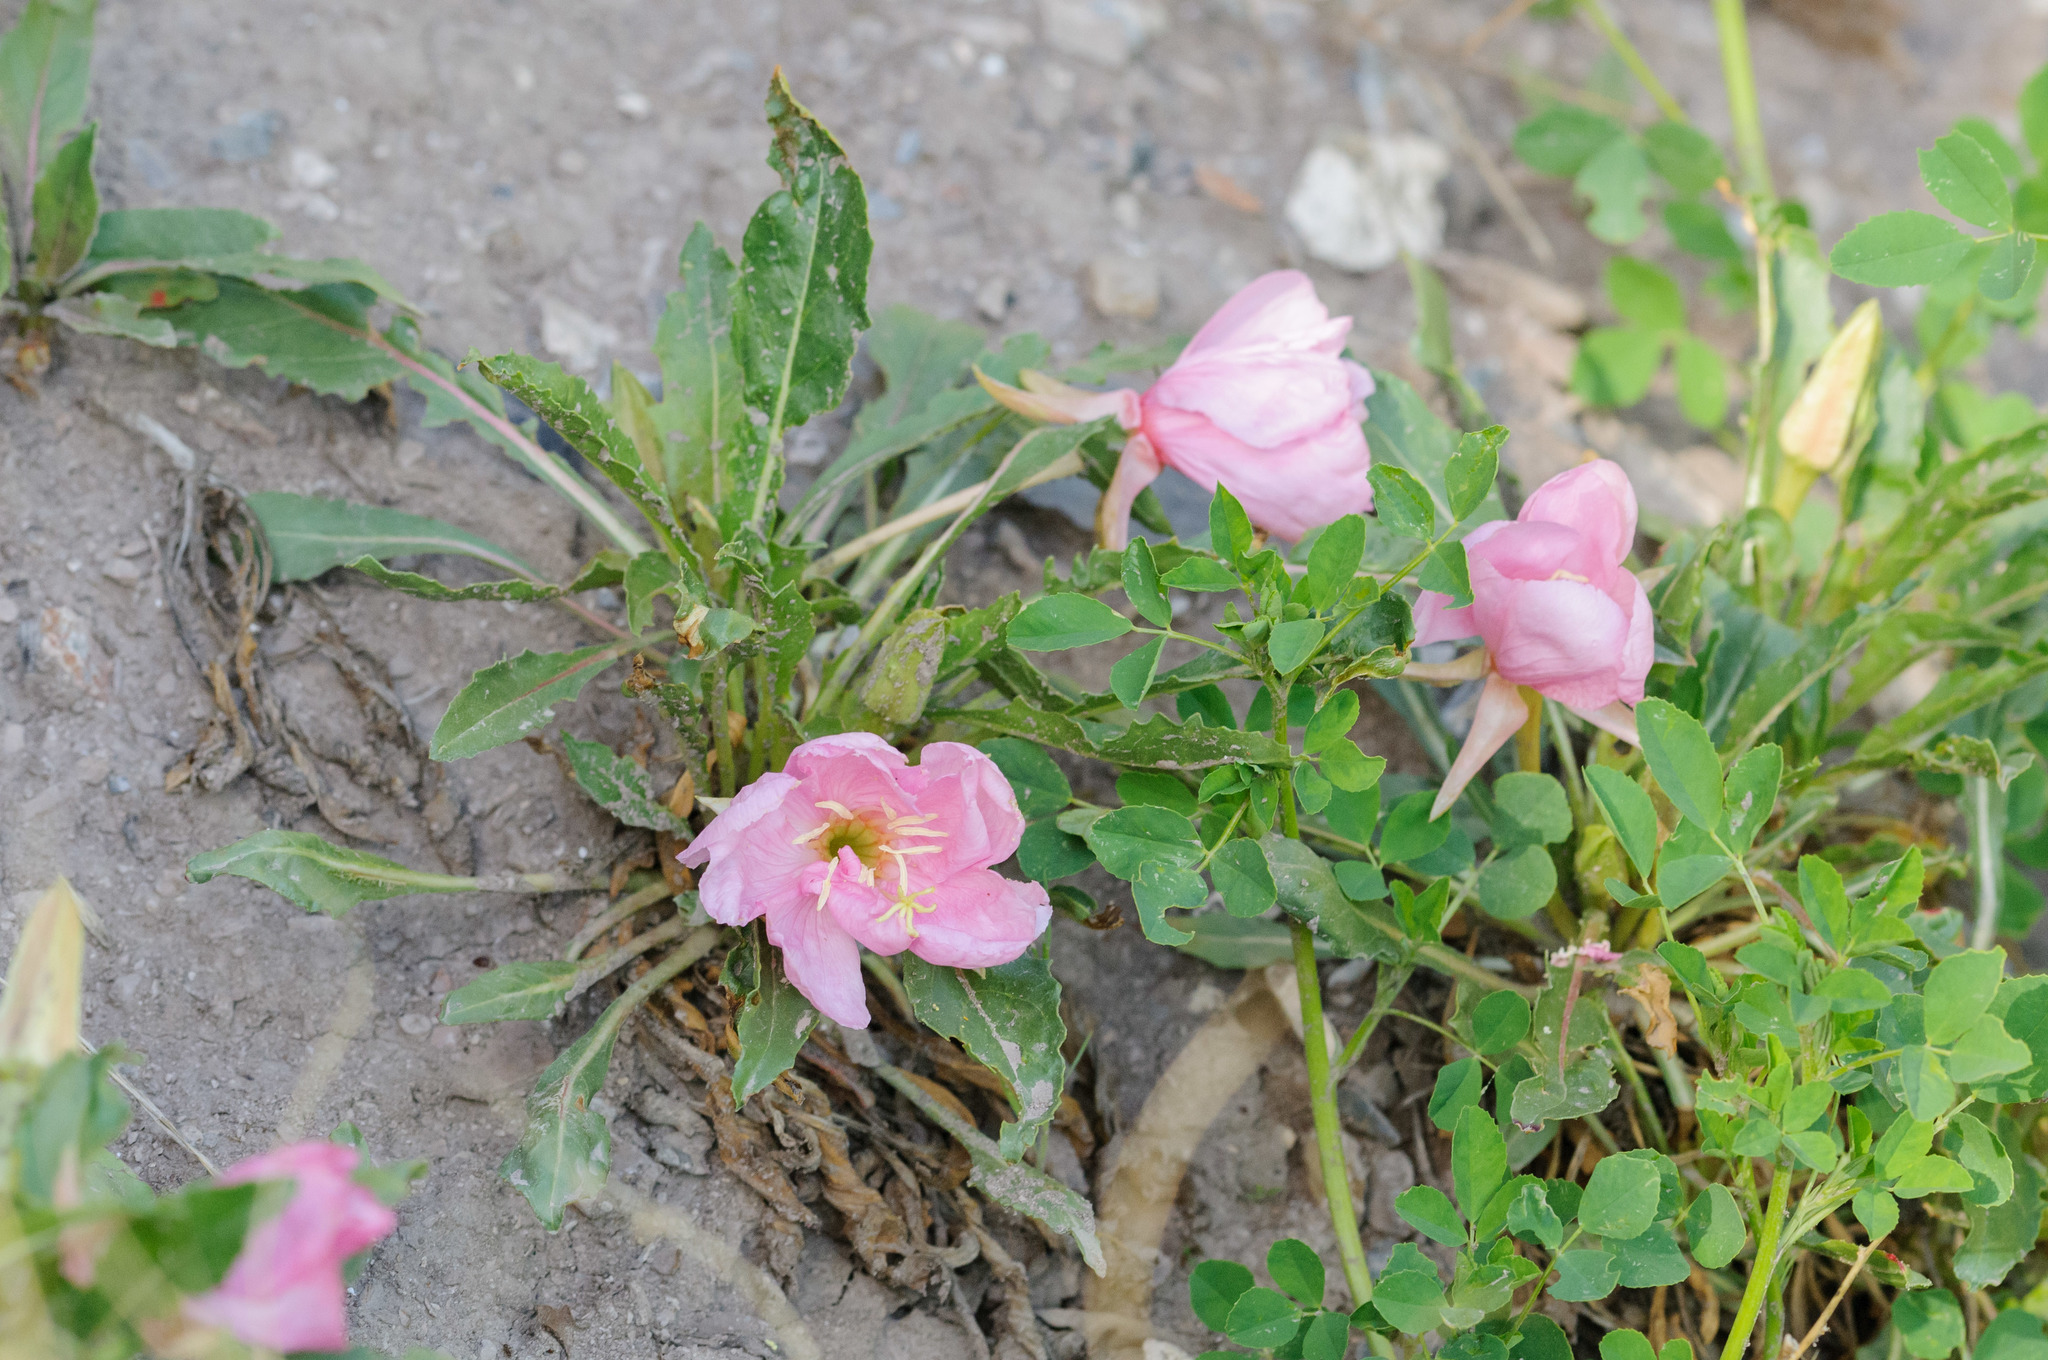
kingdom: Plantae
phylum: Tracheophyta
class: Magnoliopsida
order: Myrtales
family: Onagraceae
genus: Oenothera
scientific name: Oenothera cespitosa
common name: Tufted evening-primrose
